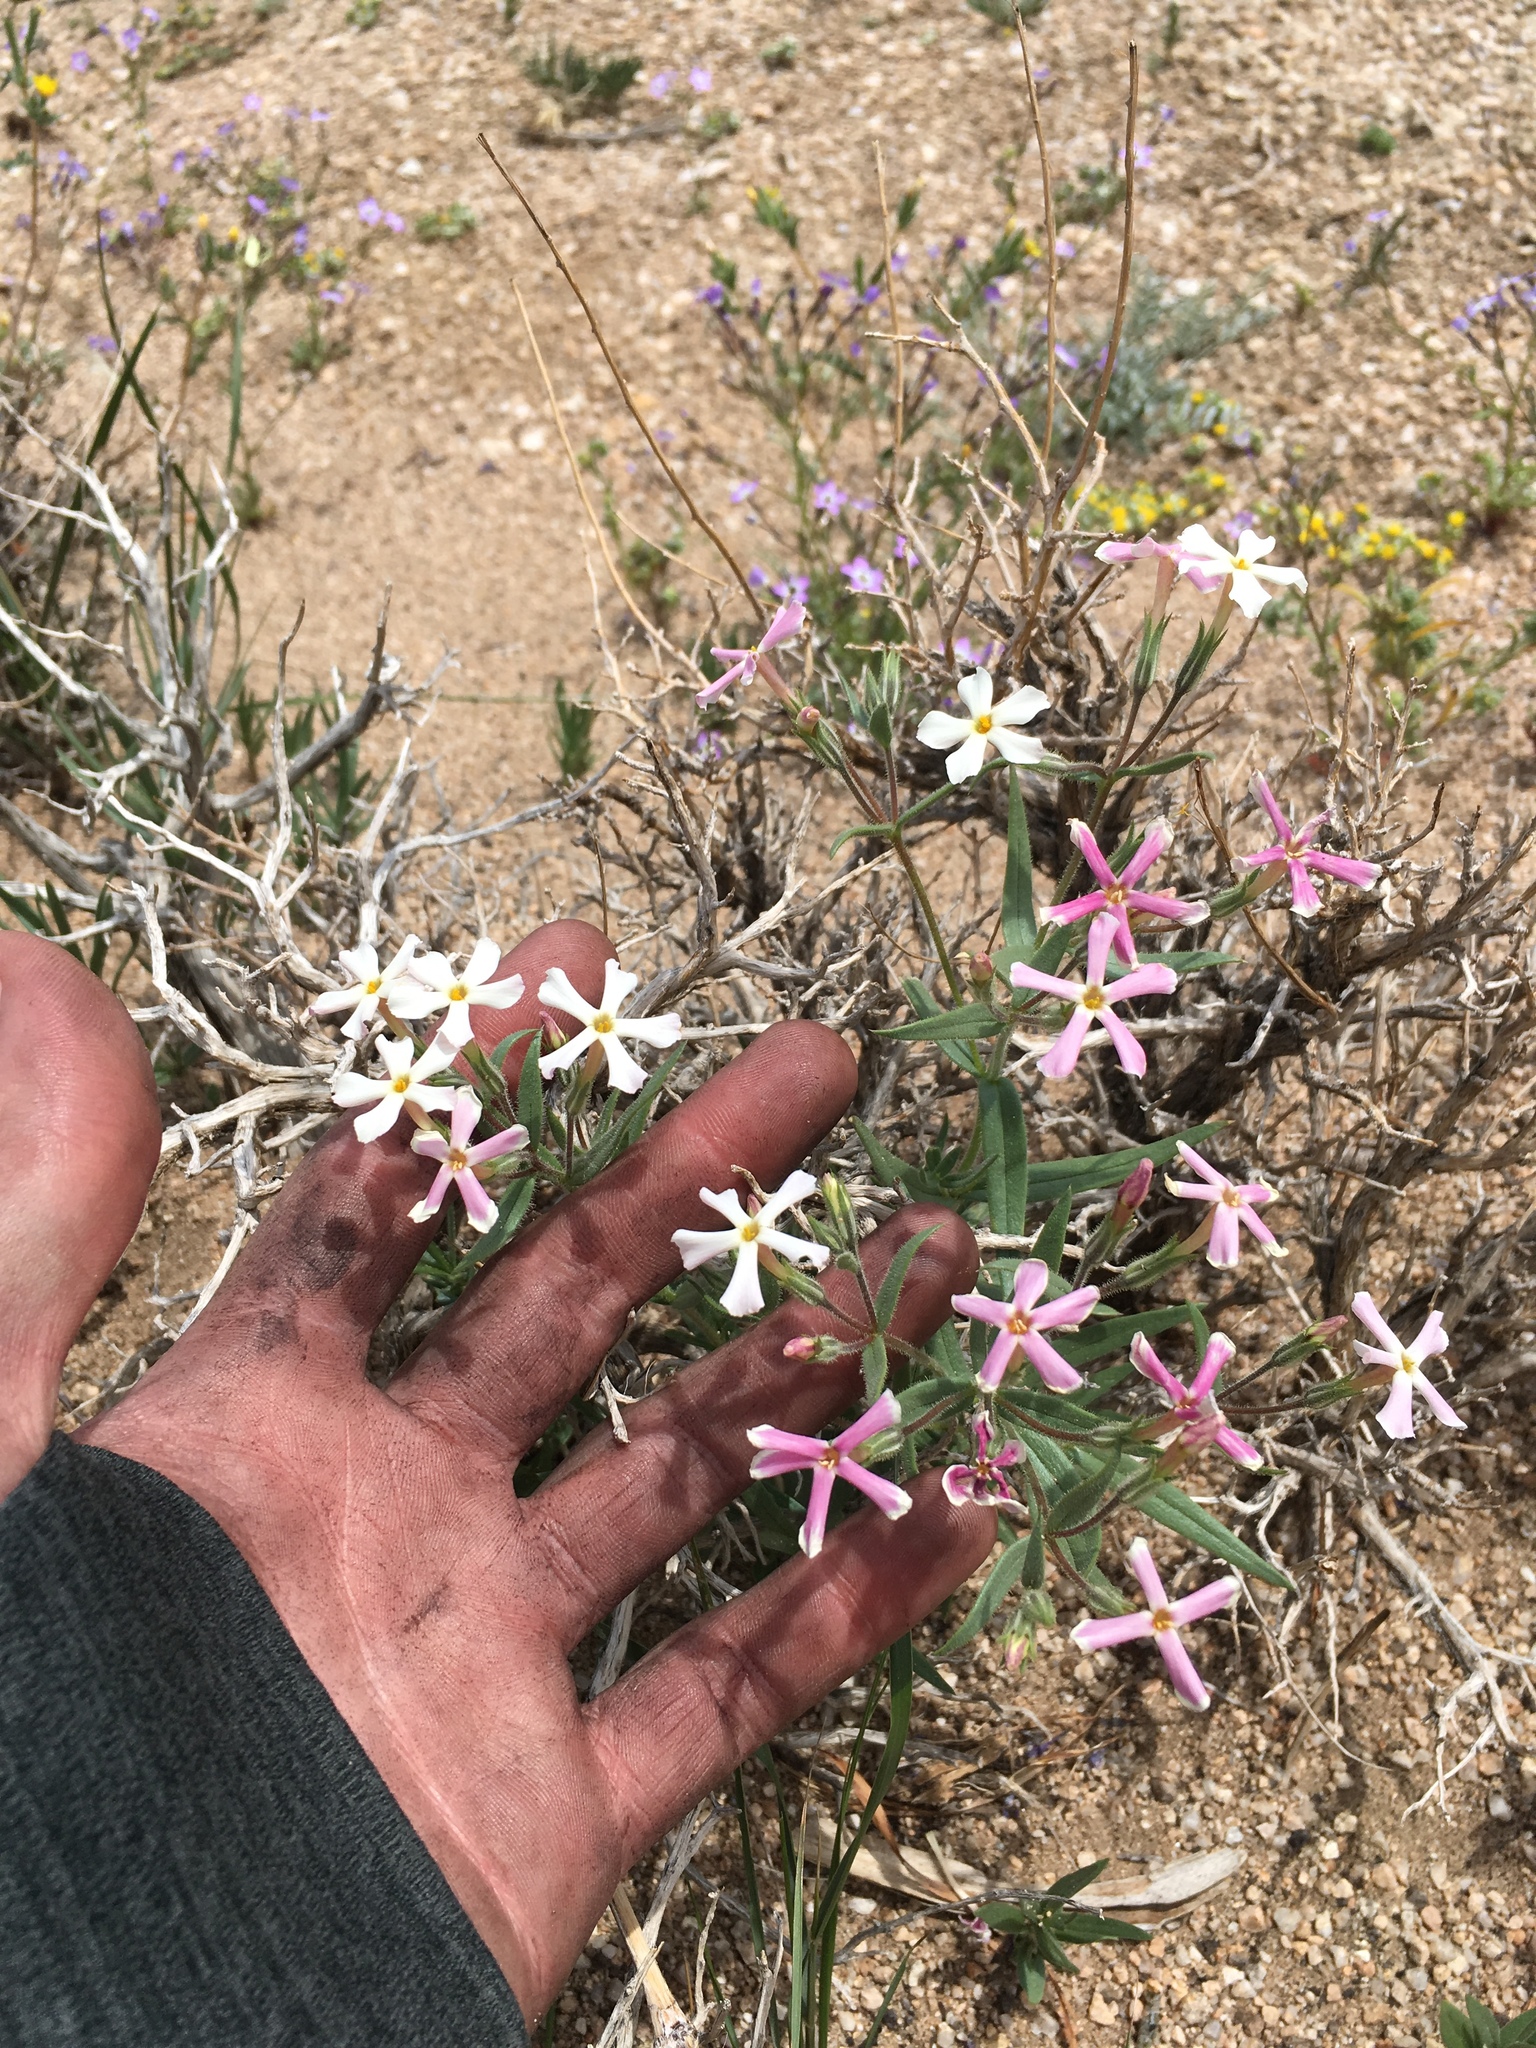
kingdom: Plantae
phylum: Tracheophyta
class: Magnoliopsida
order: Ericales
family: Polemoniaceae
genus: Phlox
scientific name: Phlox longifolia
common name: Longleaf phlox
